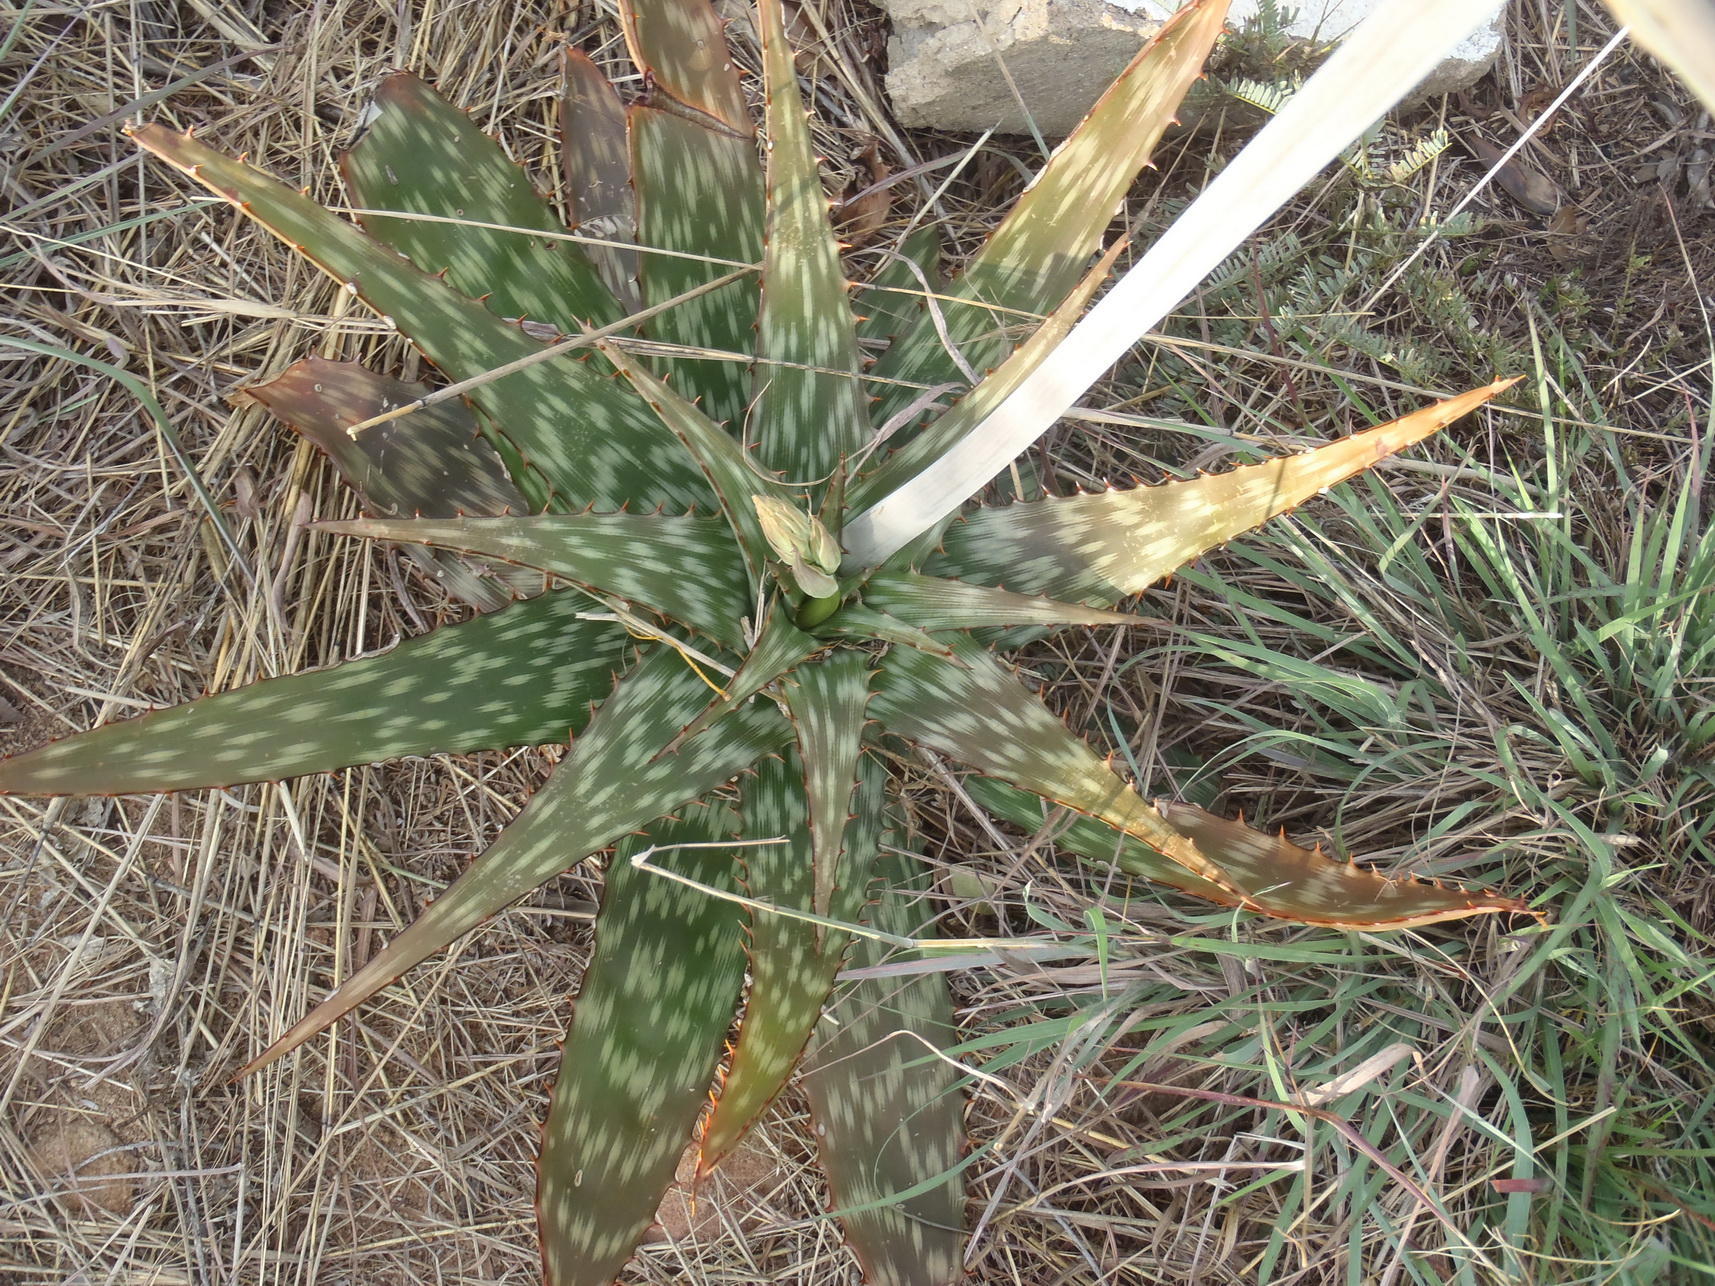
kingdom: Plantae
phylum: Tracheophyta
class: Liliopsida
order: Asparagales
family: Asphodelaceae
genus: Aloe
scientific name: Aloe davyana
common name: Spotted aloe
